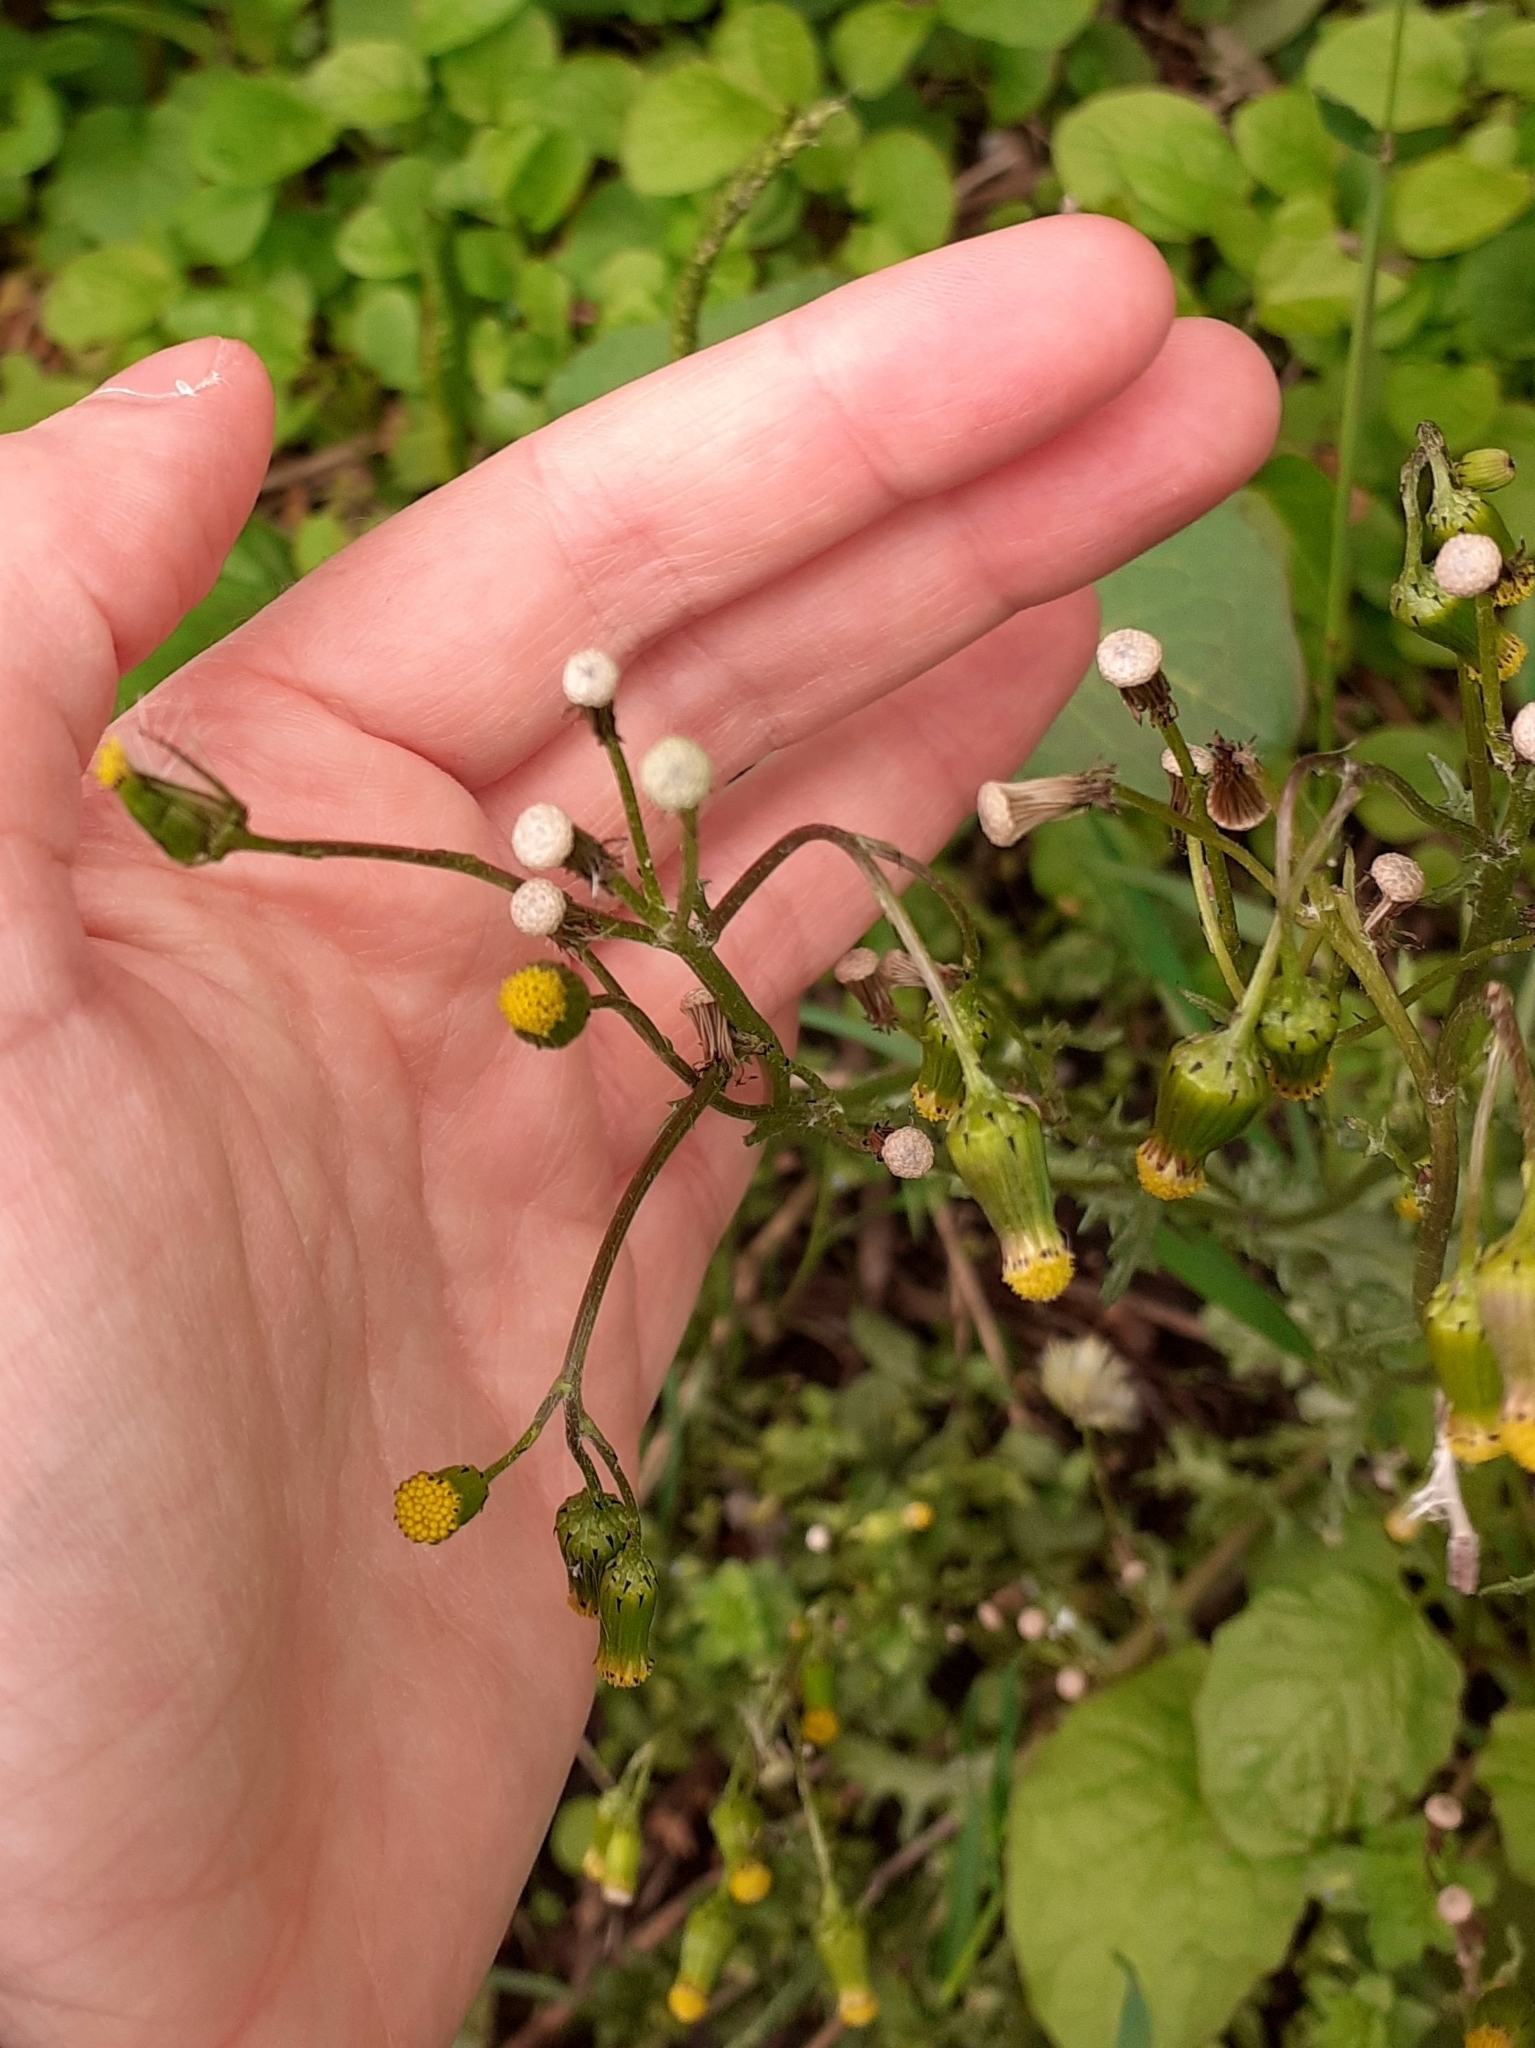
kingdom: Plantae
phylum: Tracheophyta
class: Magnoliopsida
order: Asterales
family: Asteraceae
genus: Senecio
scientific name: Senecio vulgaris
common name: Old-man-in-the-spring
